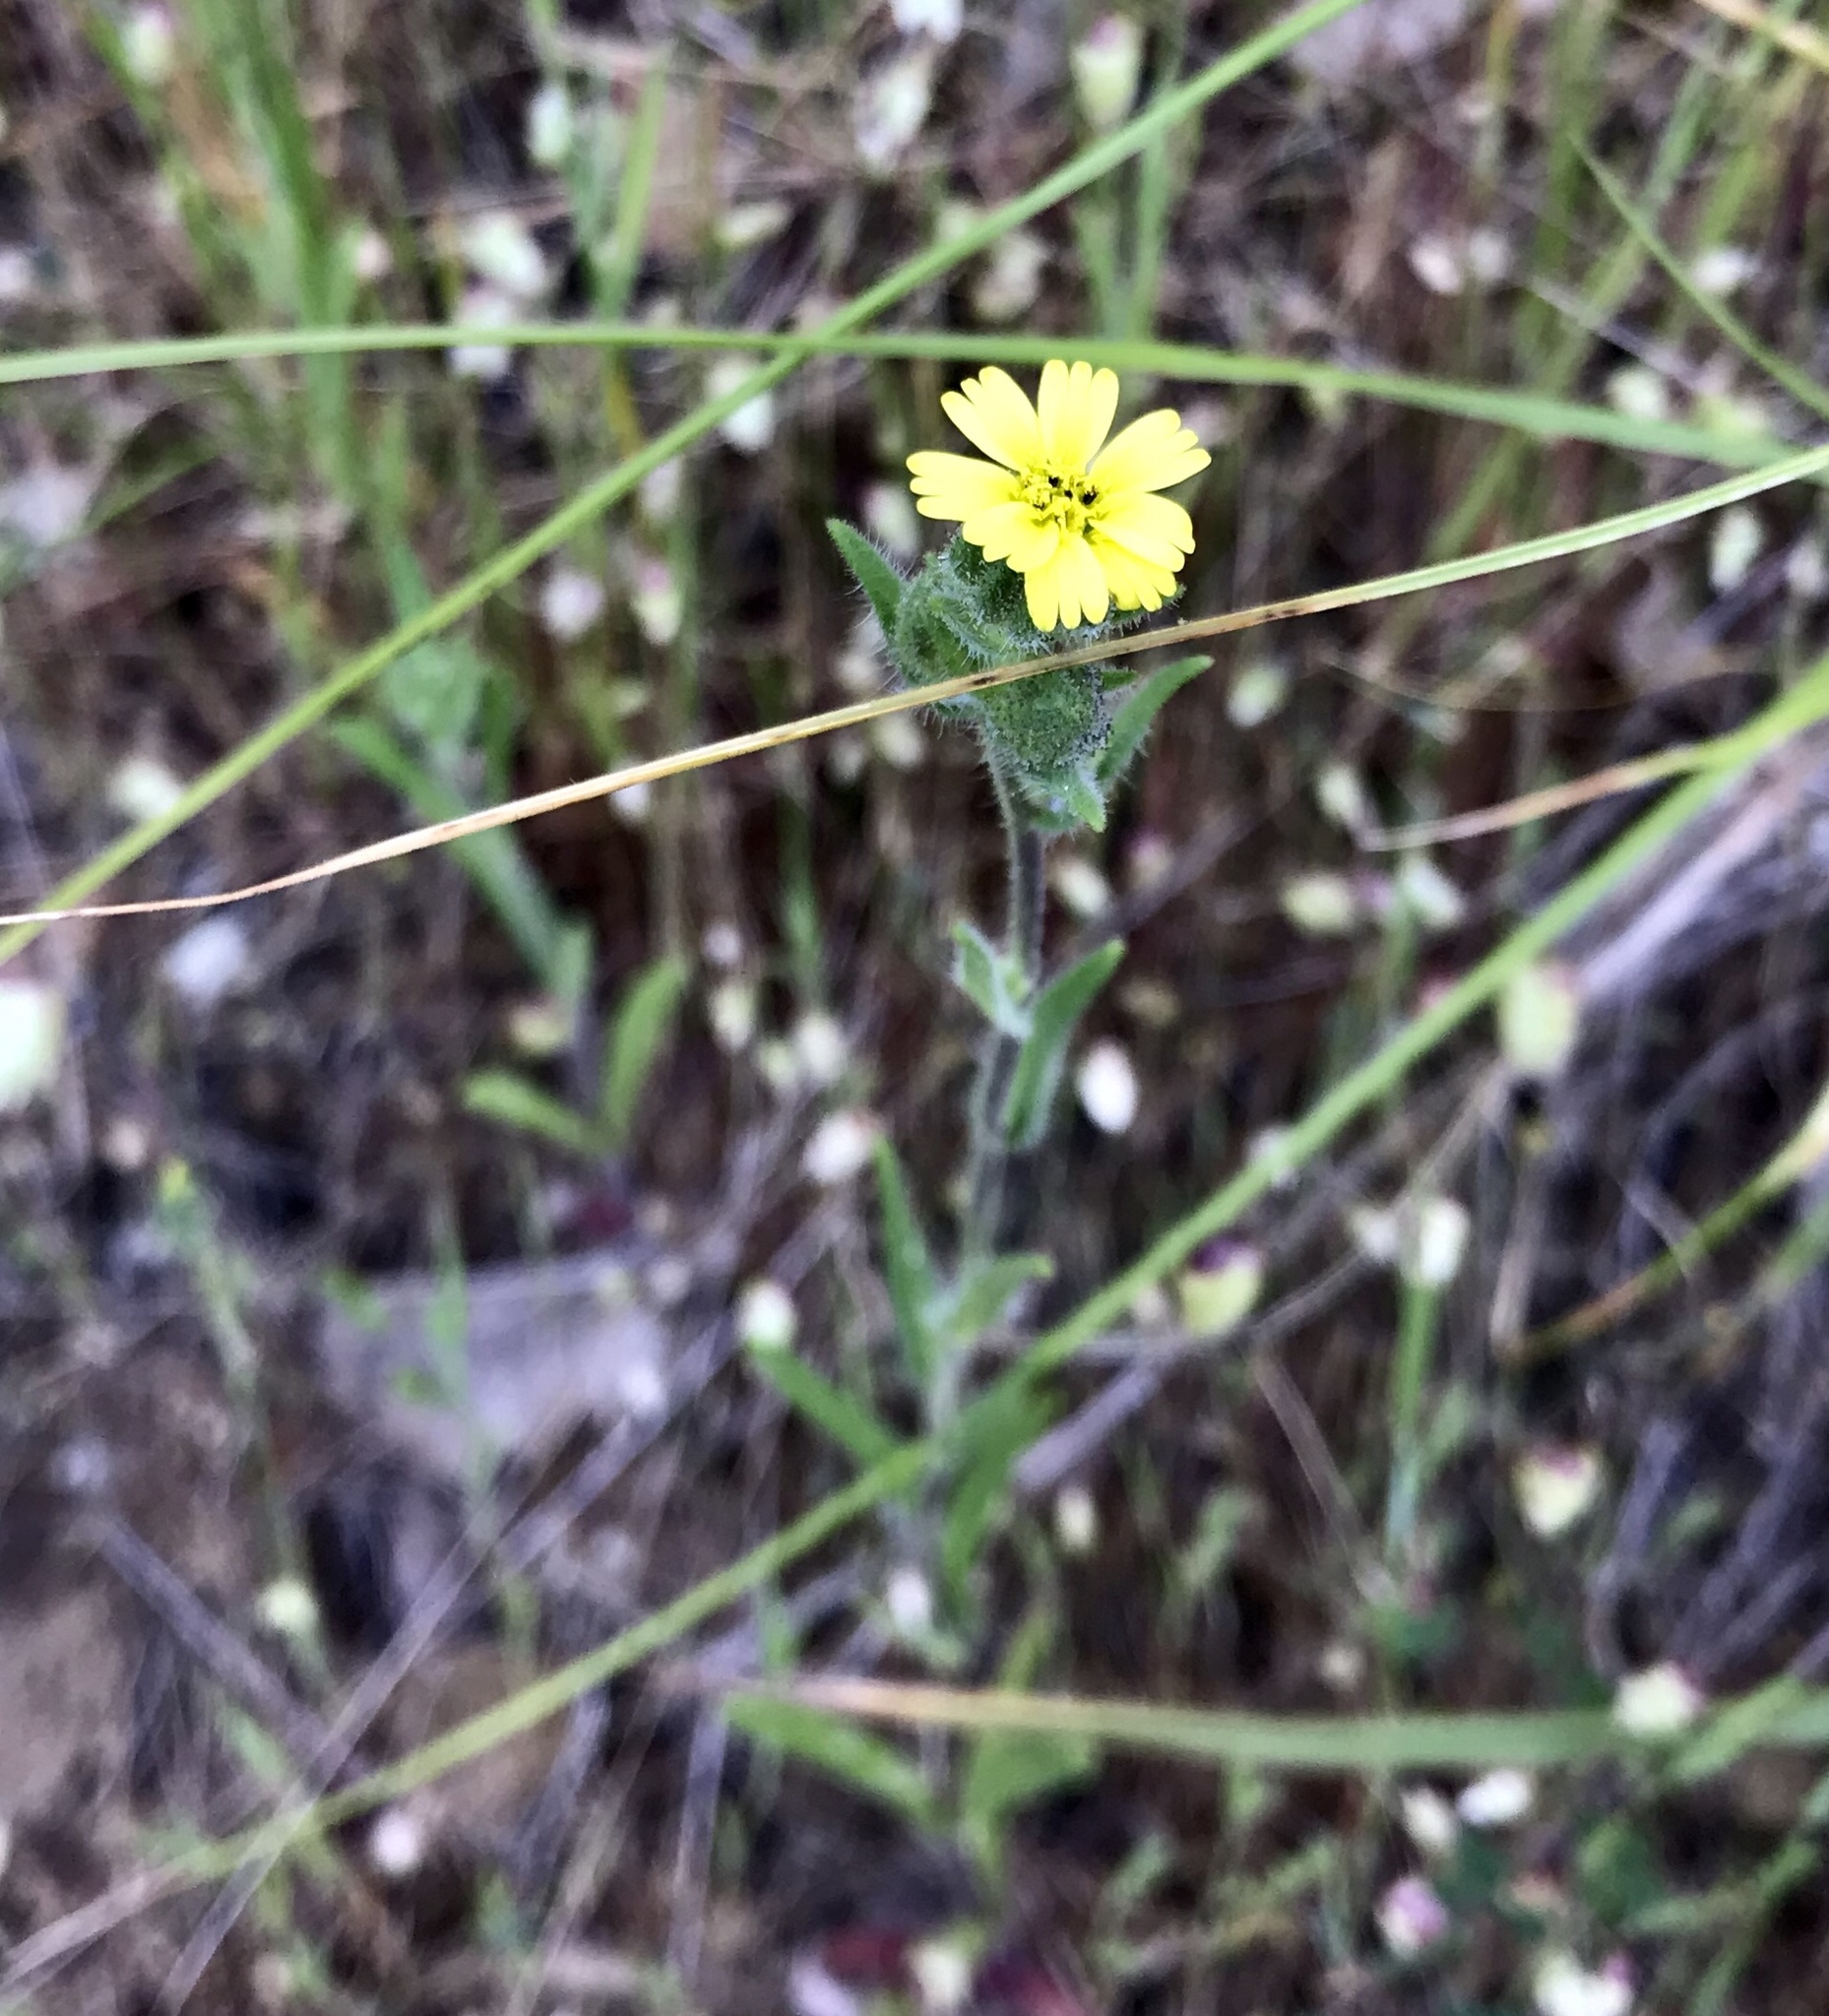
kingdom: Plantae
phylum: Tracheophyta
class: Magnoliopsida
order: Asterales
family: Asteraceae
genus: Madia
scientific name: Madia gracilis
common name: Grassy tarweed
